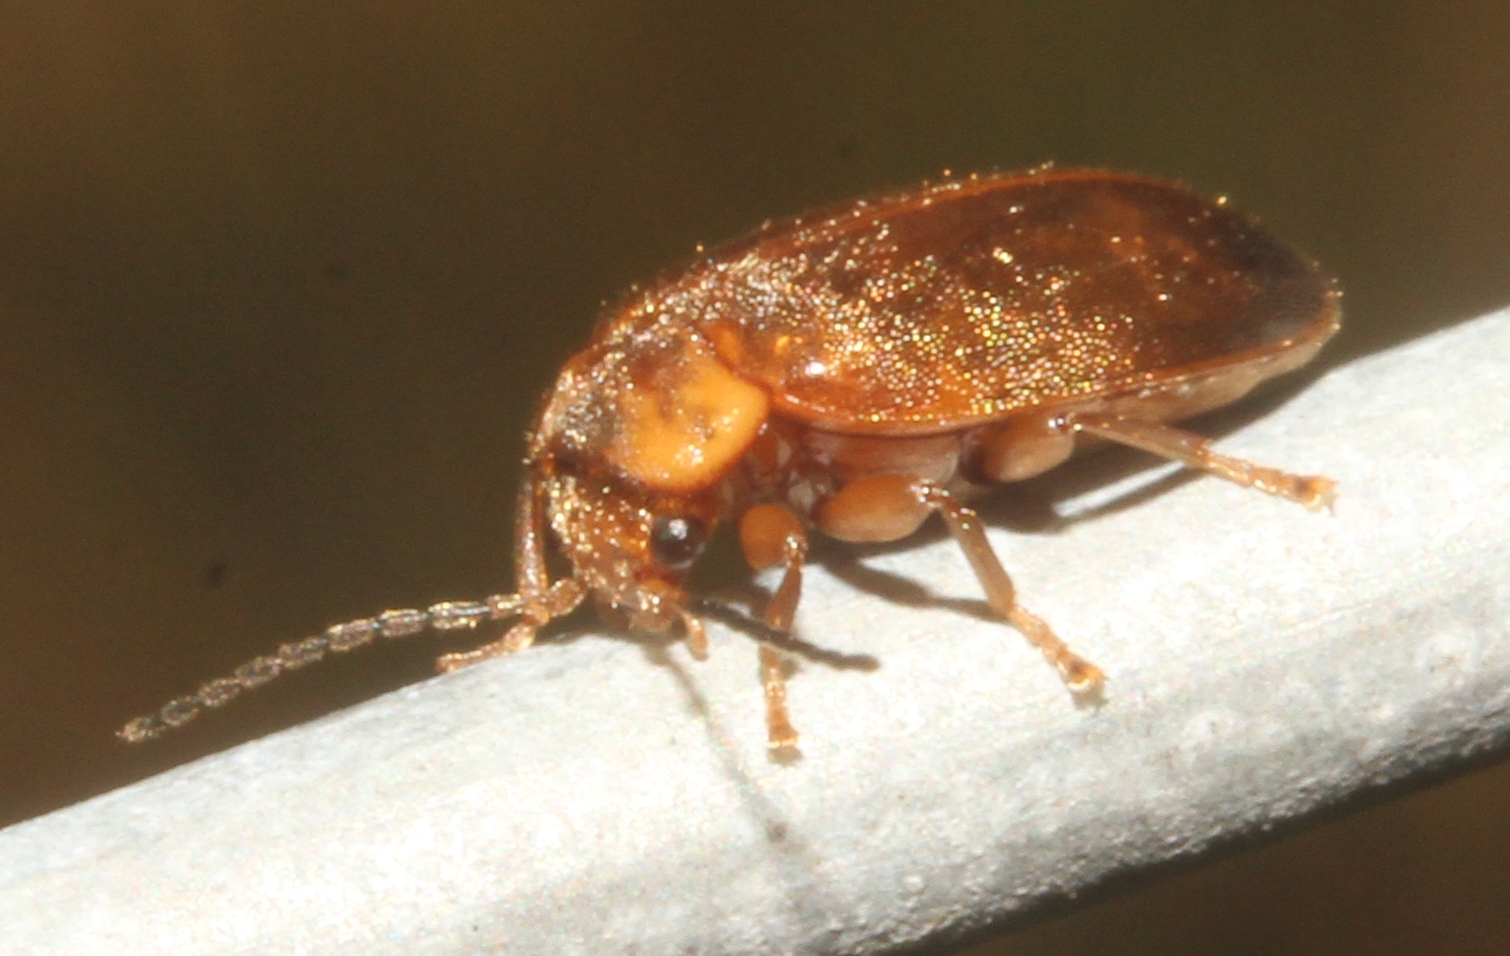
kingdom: Animalia
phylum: Arthropoda
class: Insecta
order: Coleoptera
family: Scirtidae
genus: Microcara
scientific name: Microcara testacea
